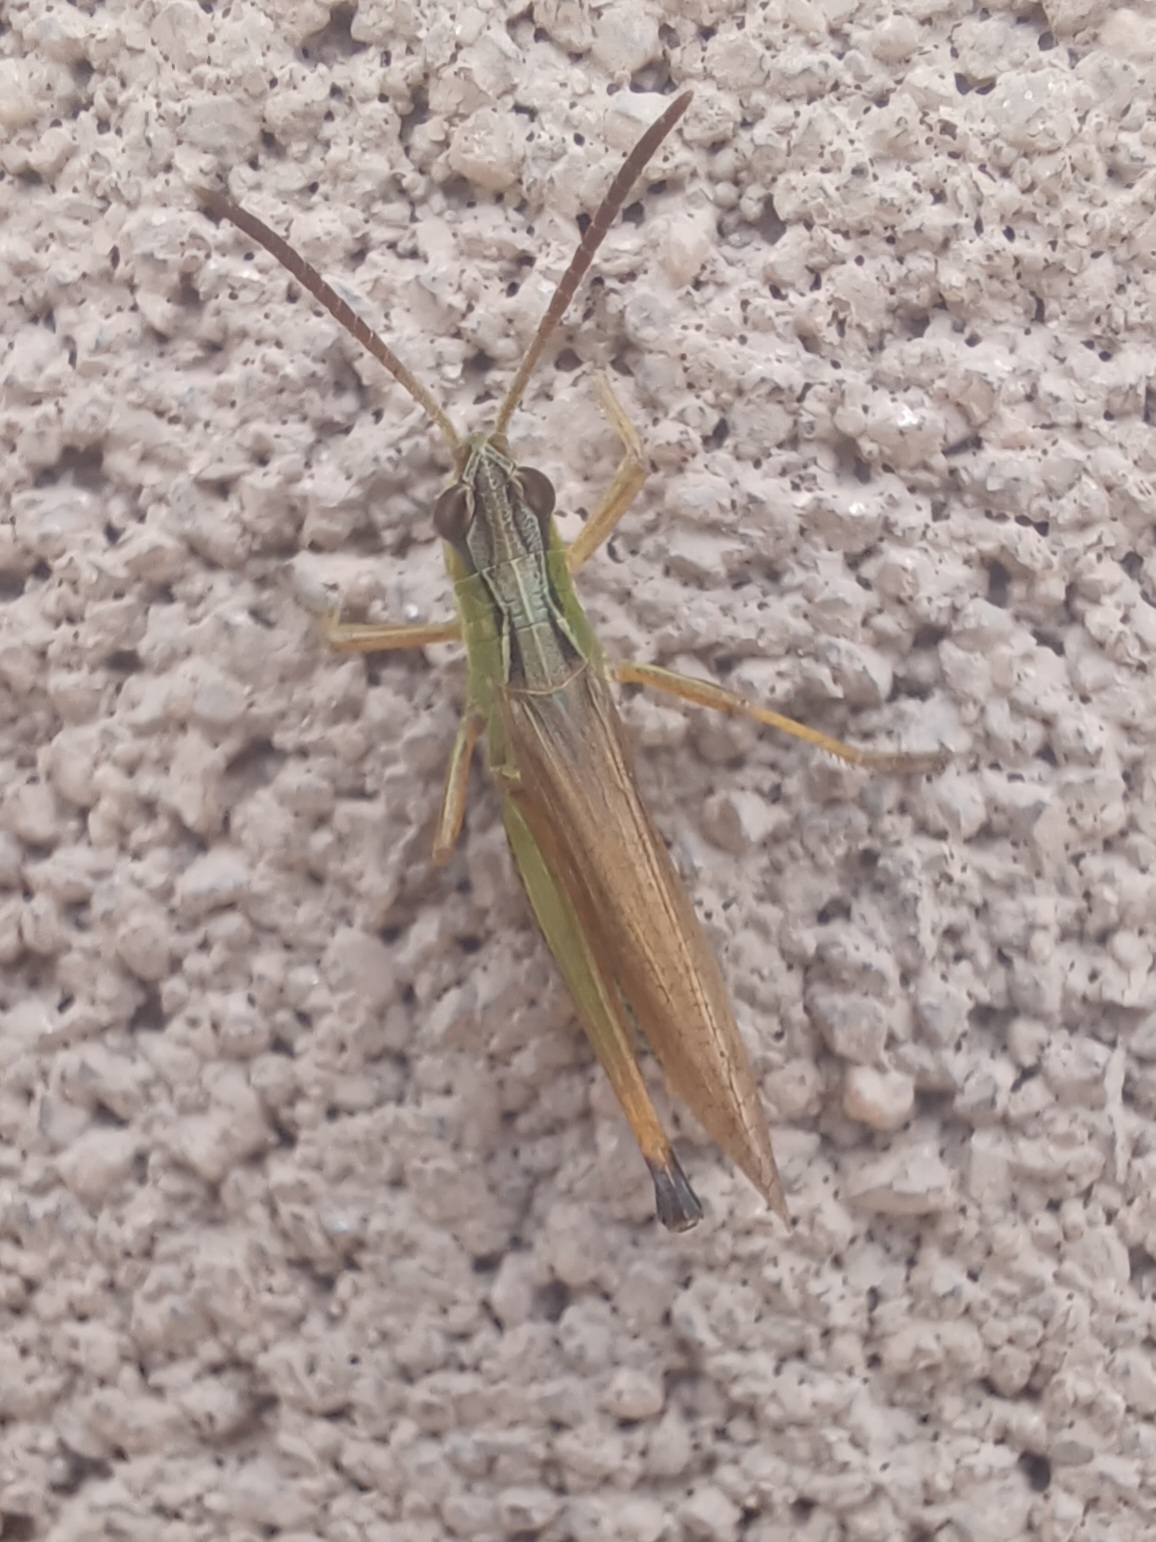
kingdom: Animalia
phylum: Arthropoda
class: Insecta
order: Orthoptera
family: Acrididae
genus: Pseudochorthippus
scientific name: Pseudochorthippus curtipennis
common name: Marsh meadow grasshopper
